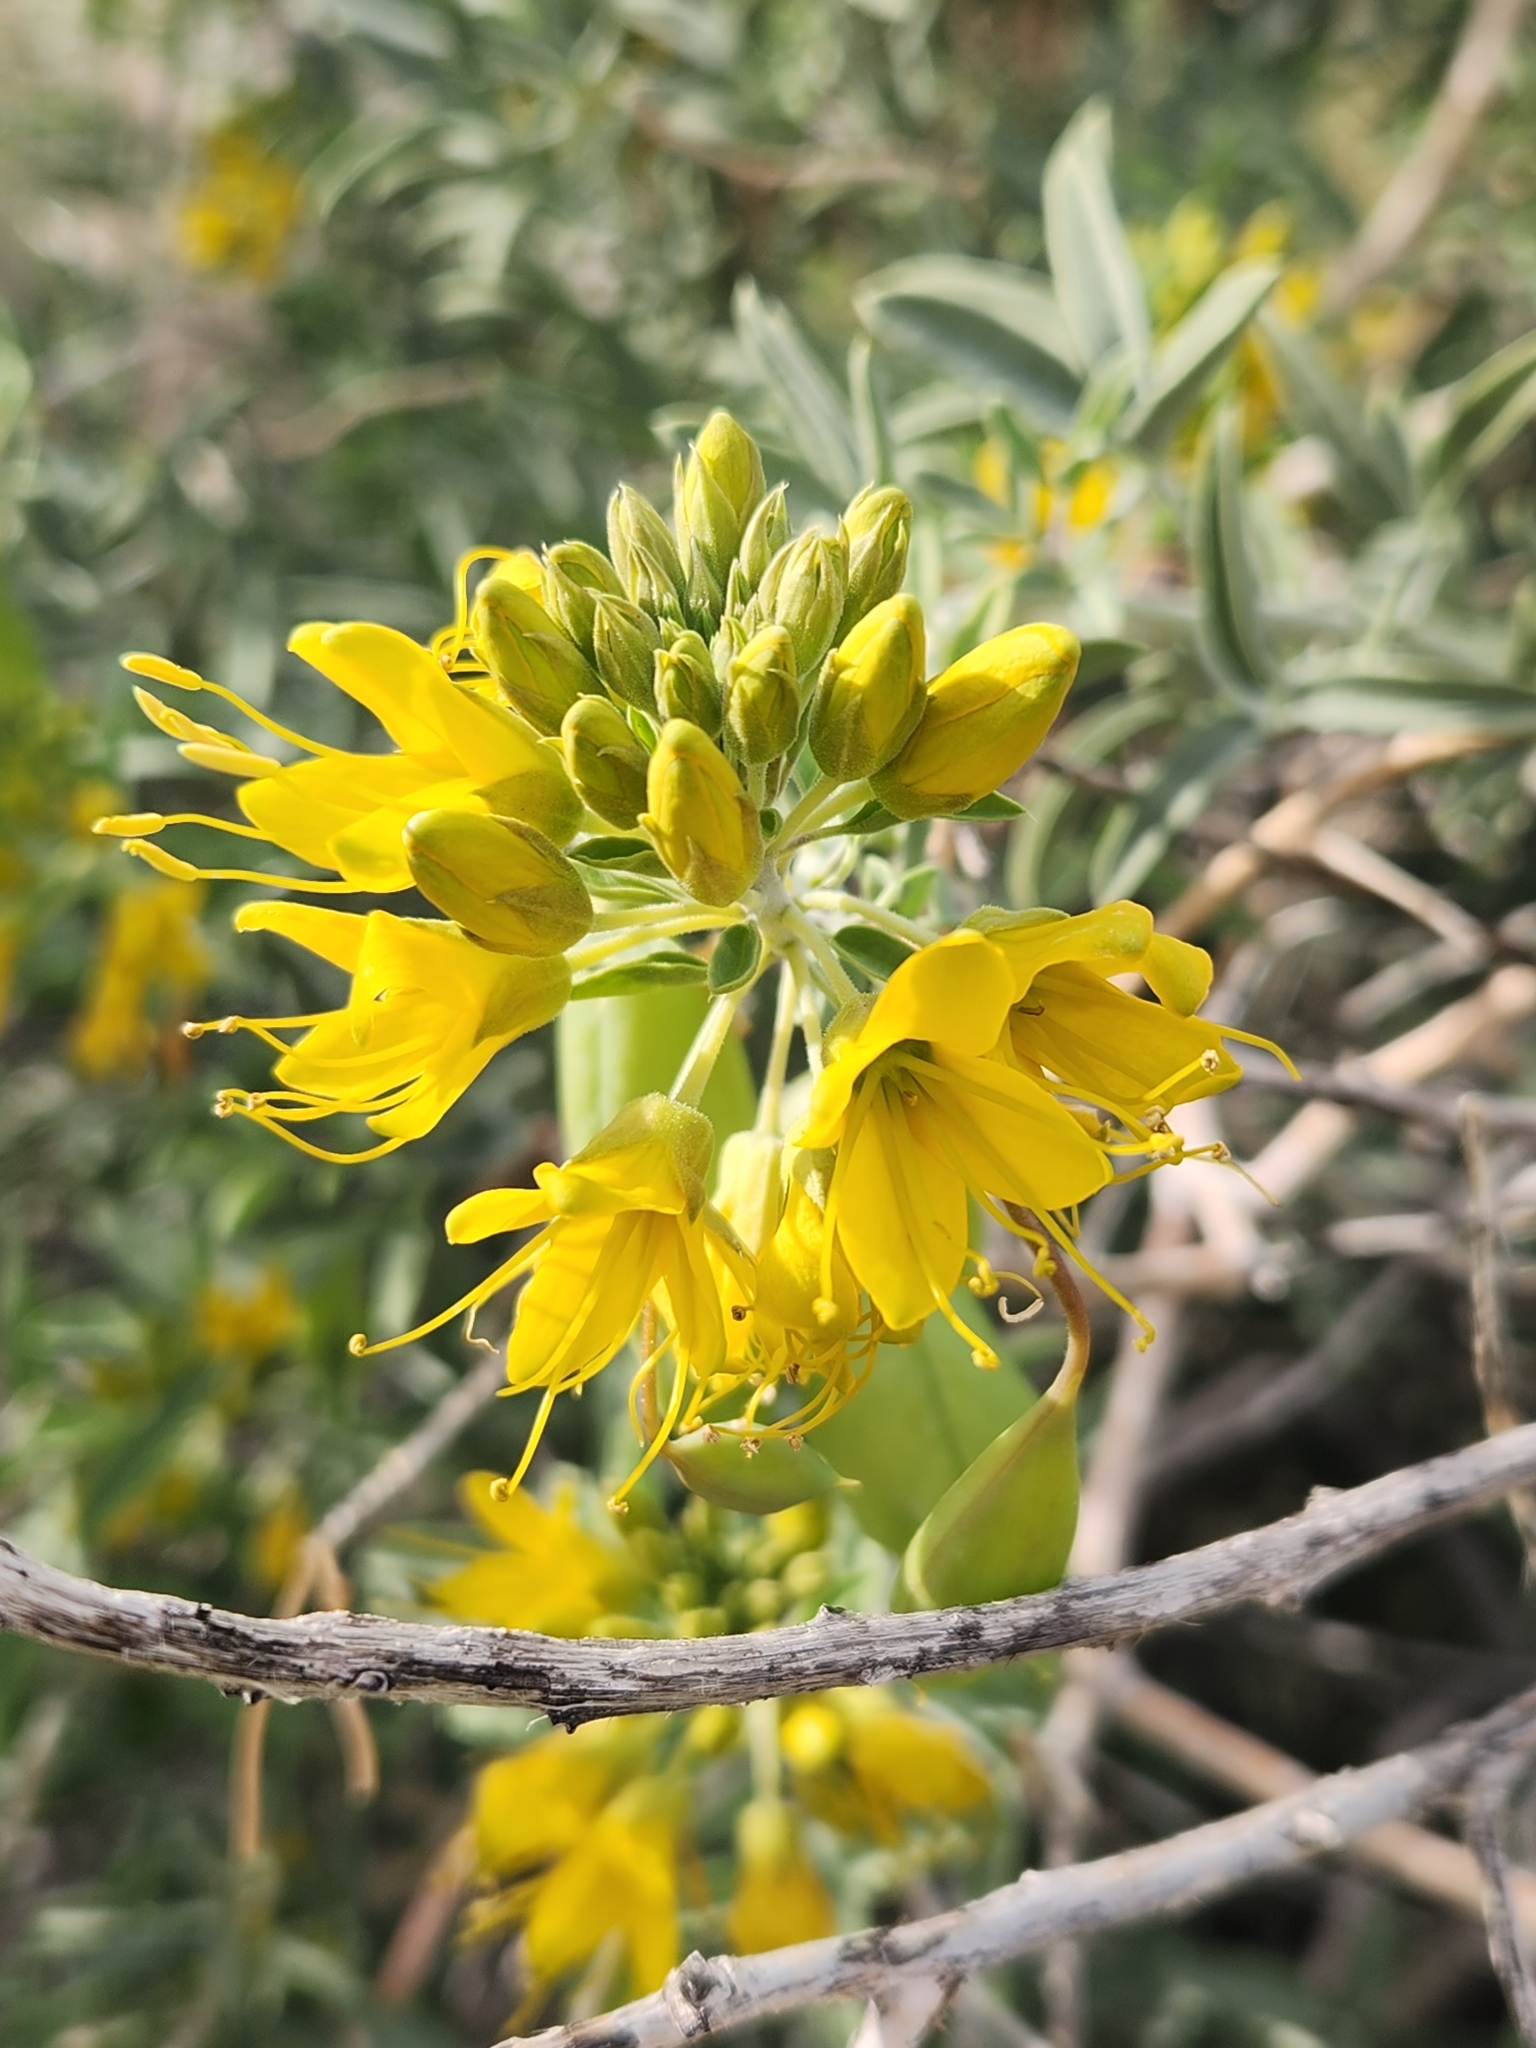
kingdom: Plantae
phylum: Tracheophyta
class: Magnoliopsida
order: Brassicales
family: Cleomaceae
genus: Cleomella
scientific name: Cleomella arborea
